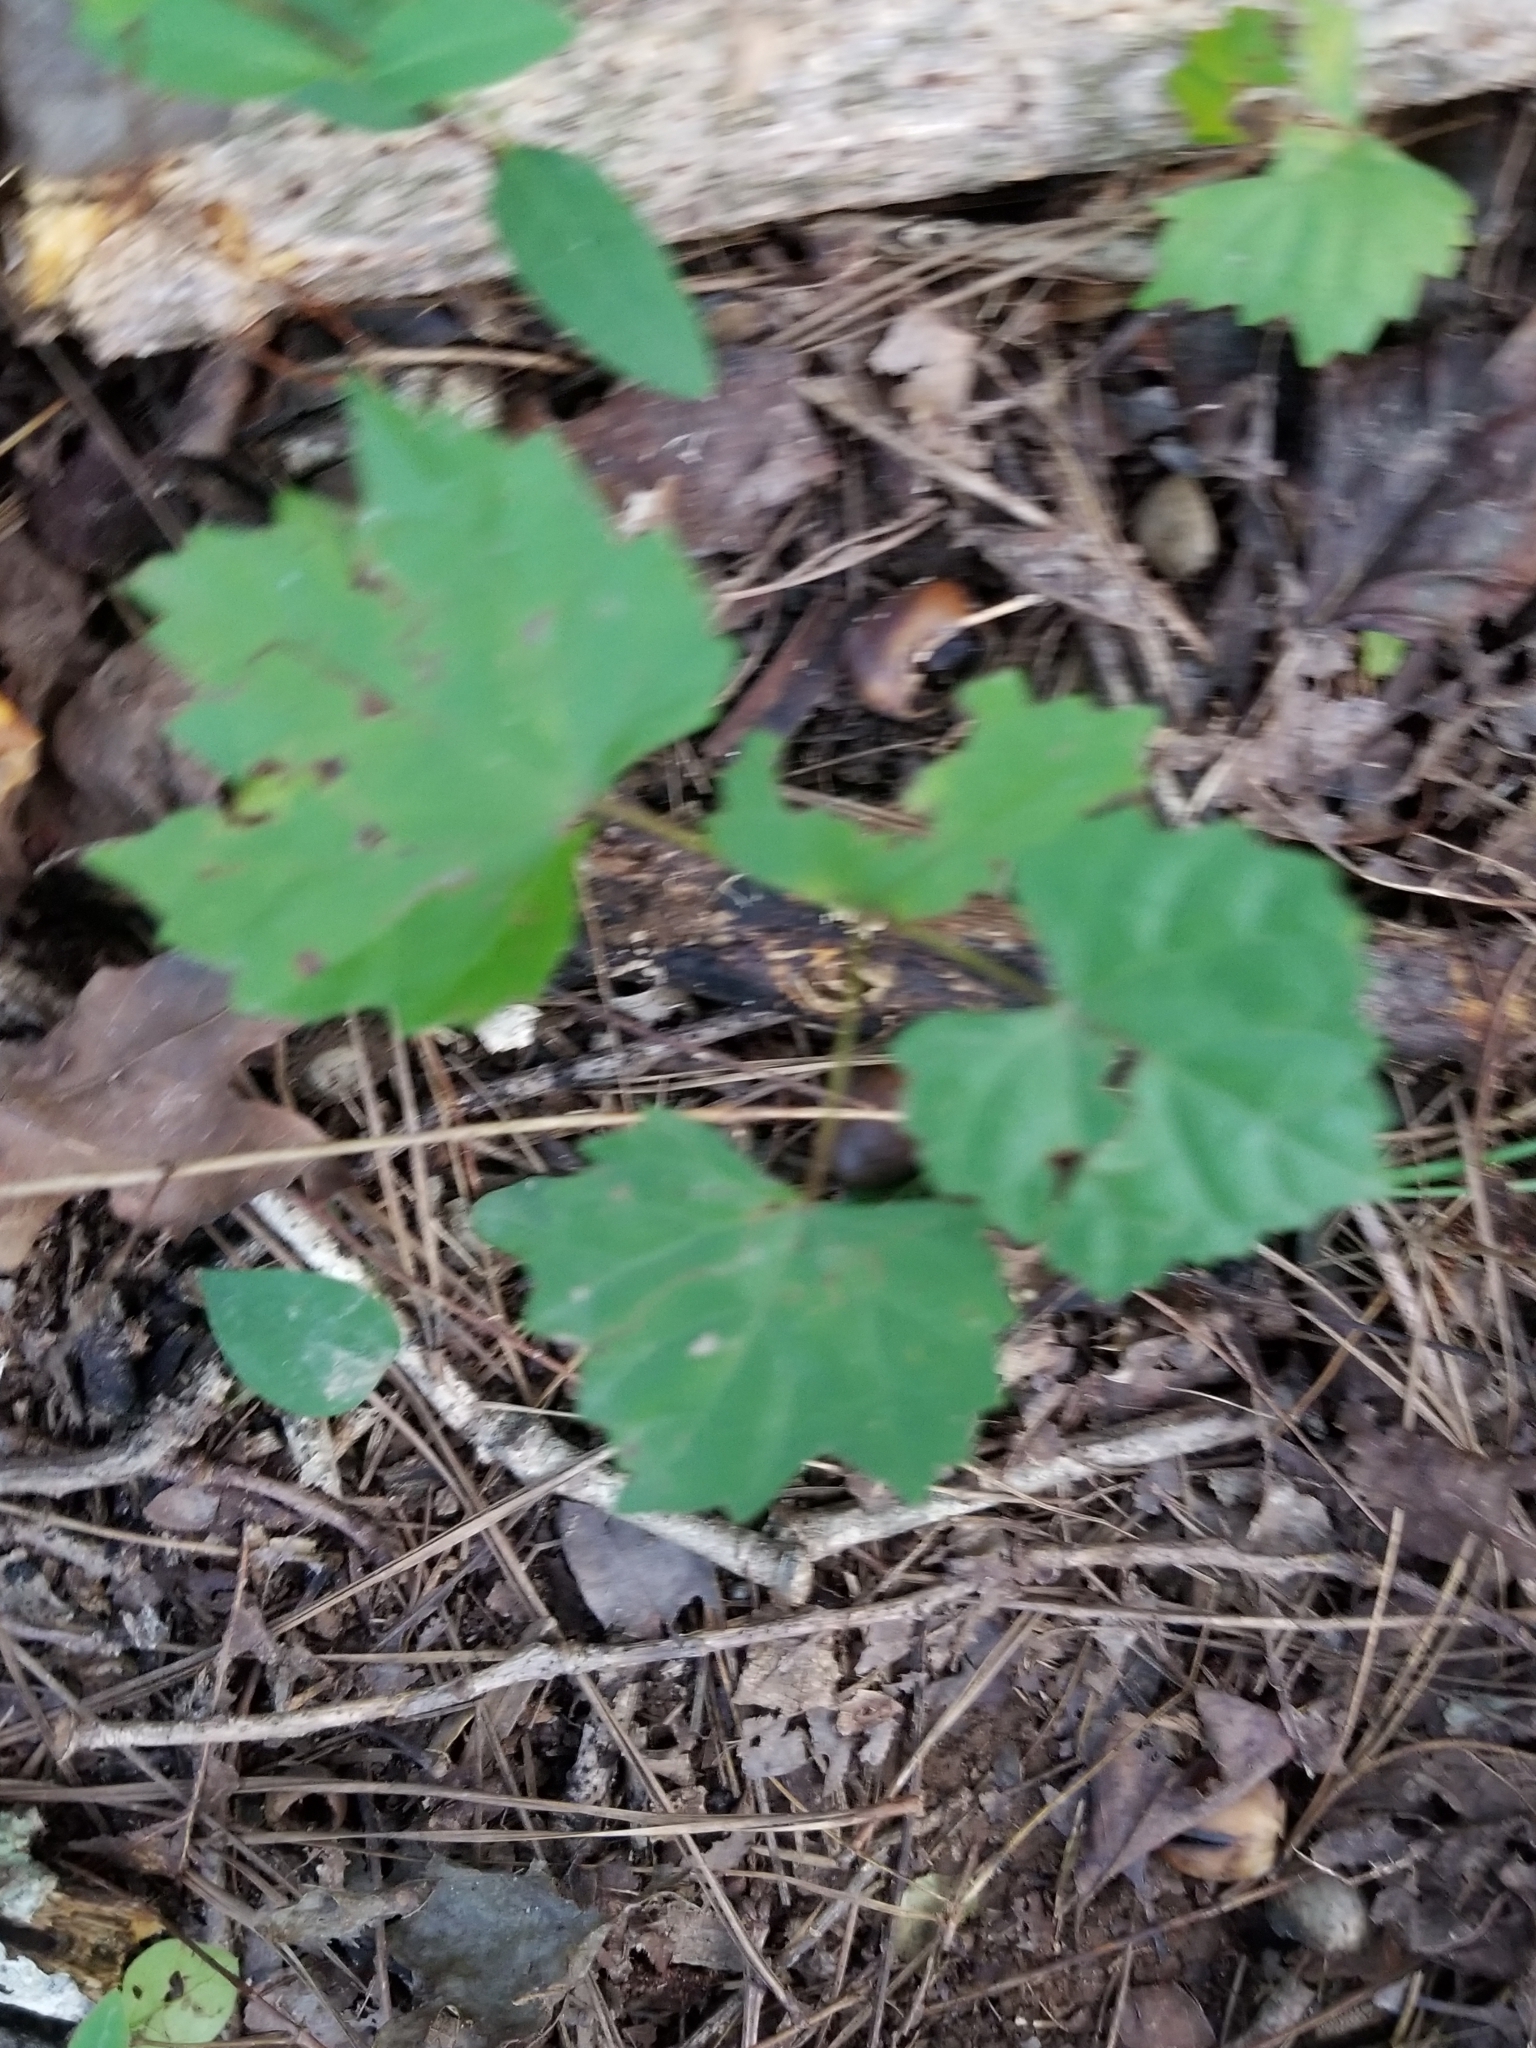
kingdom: Plantae
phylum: Tracheophyta
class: Magnoliopsida
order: Vitales
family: Vitaceae
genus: Vitis
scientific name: Vitis rotundifolia
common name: Muscadine grape
